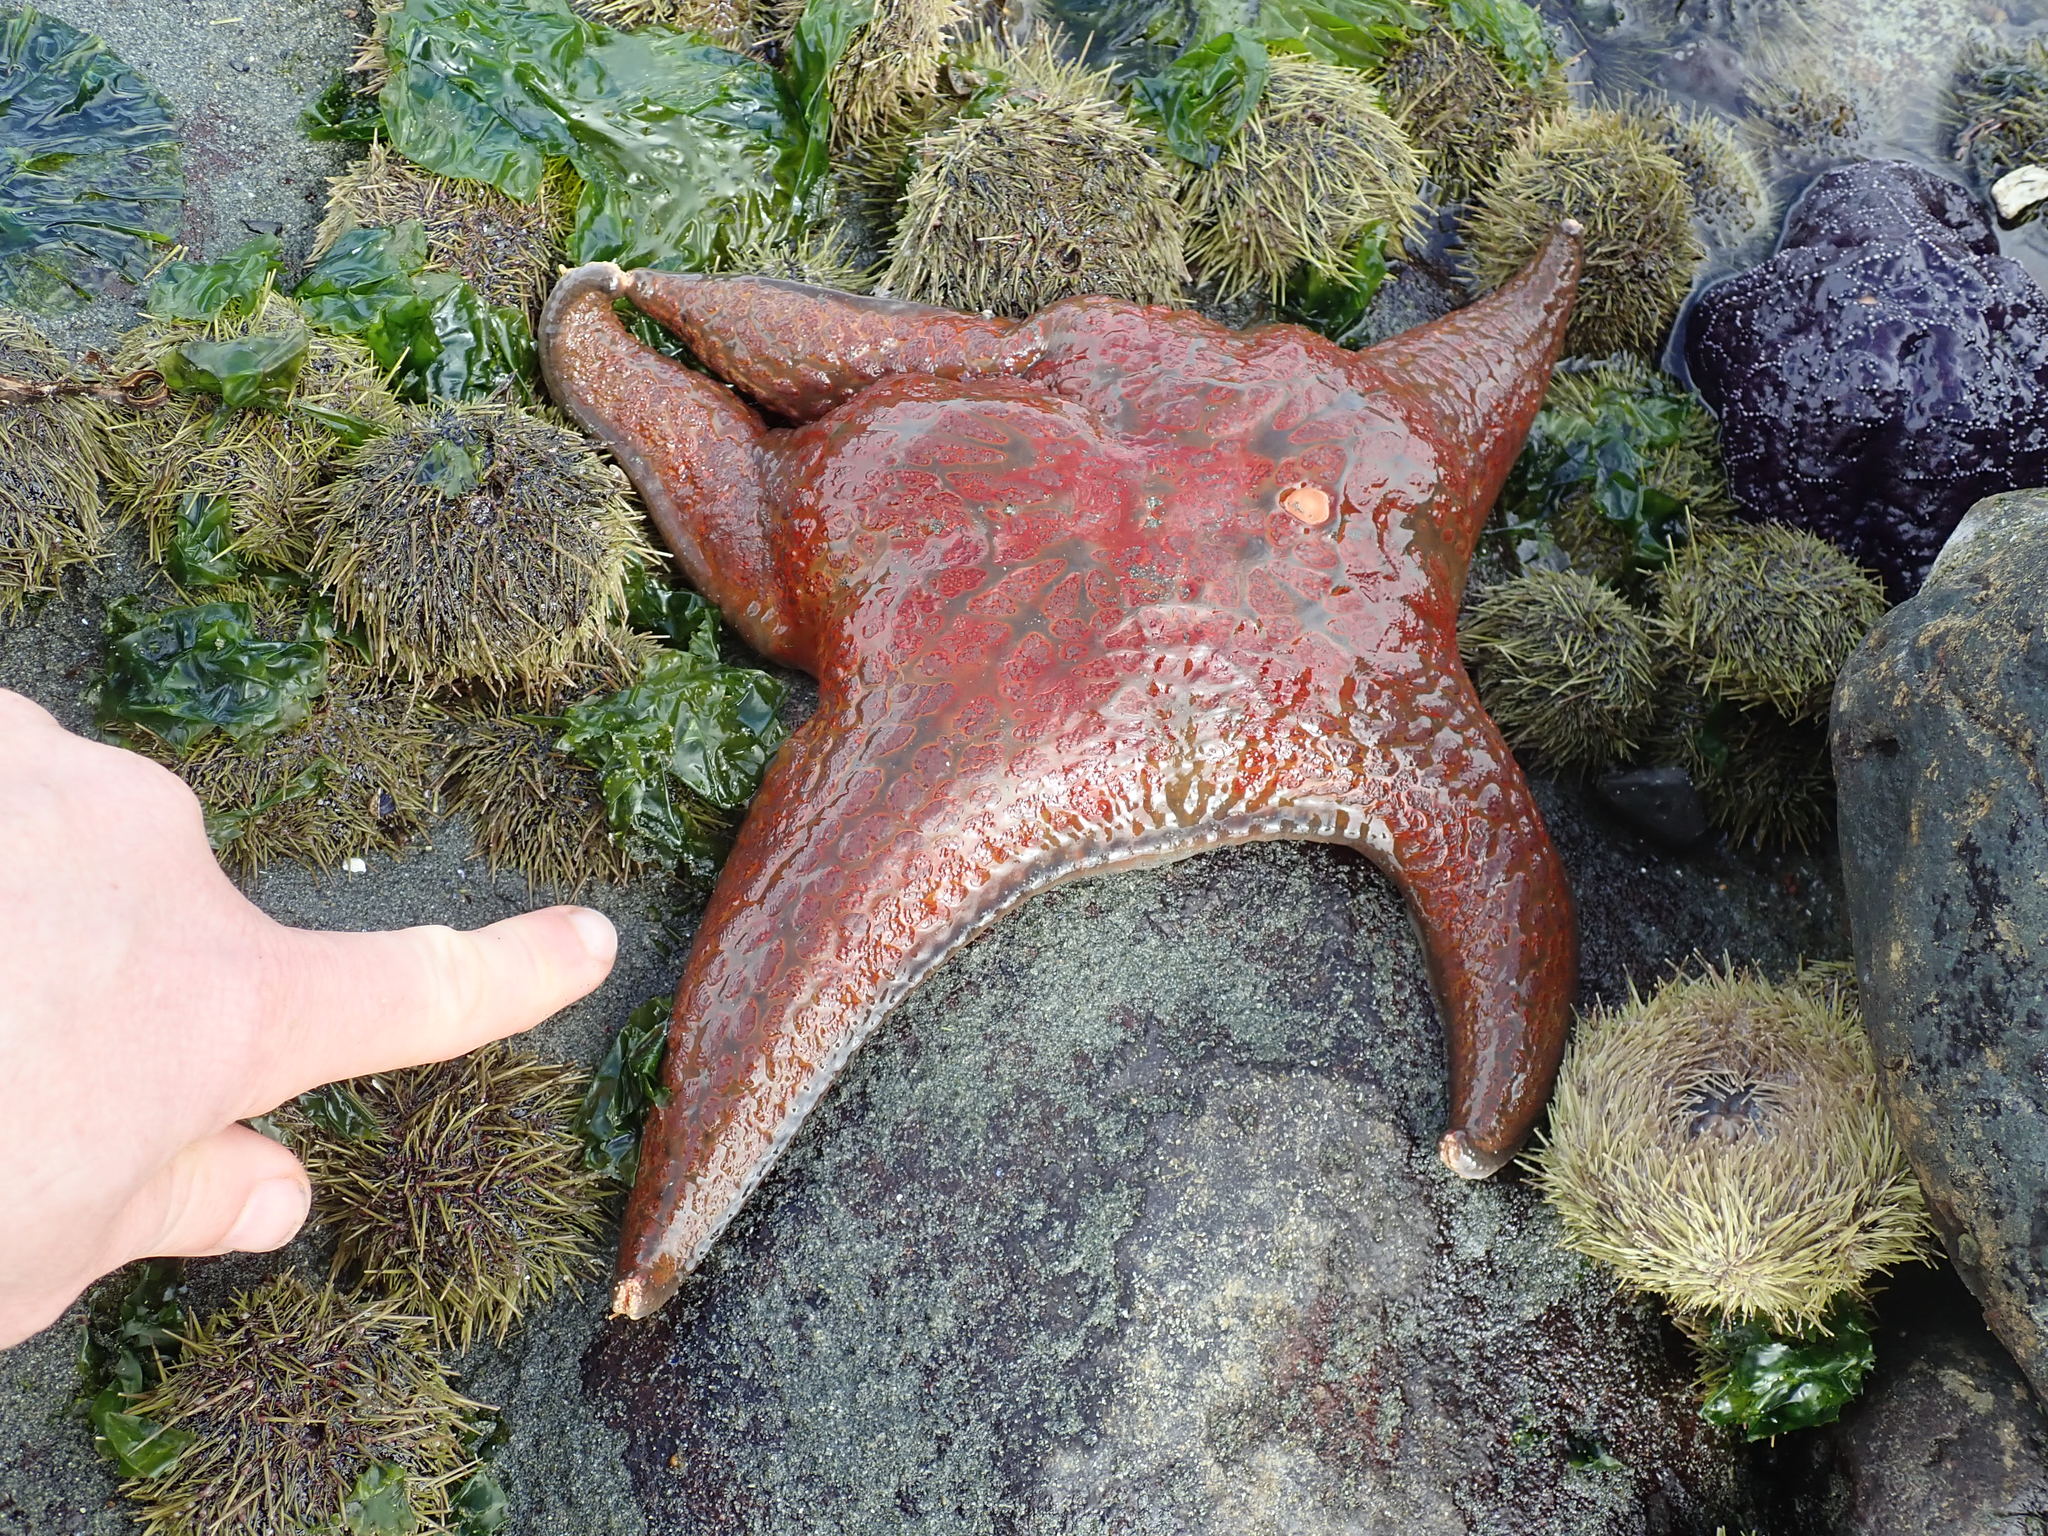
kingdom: Animalia
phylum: Echinodermata
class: Asteroidea
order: Valvatida
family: Asteropseidae
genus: Dermasterias
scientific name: Dermasterias imbricata
